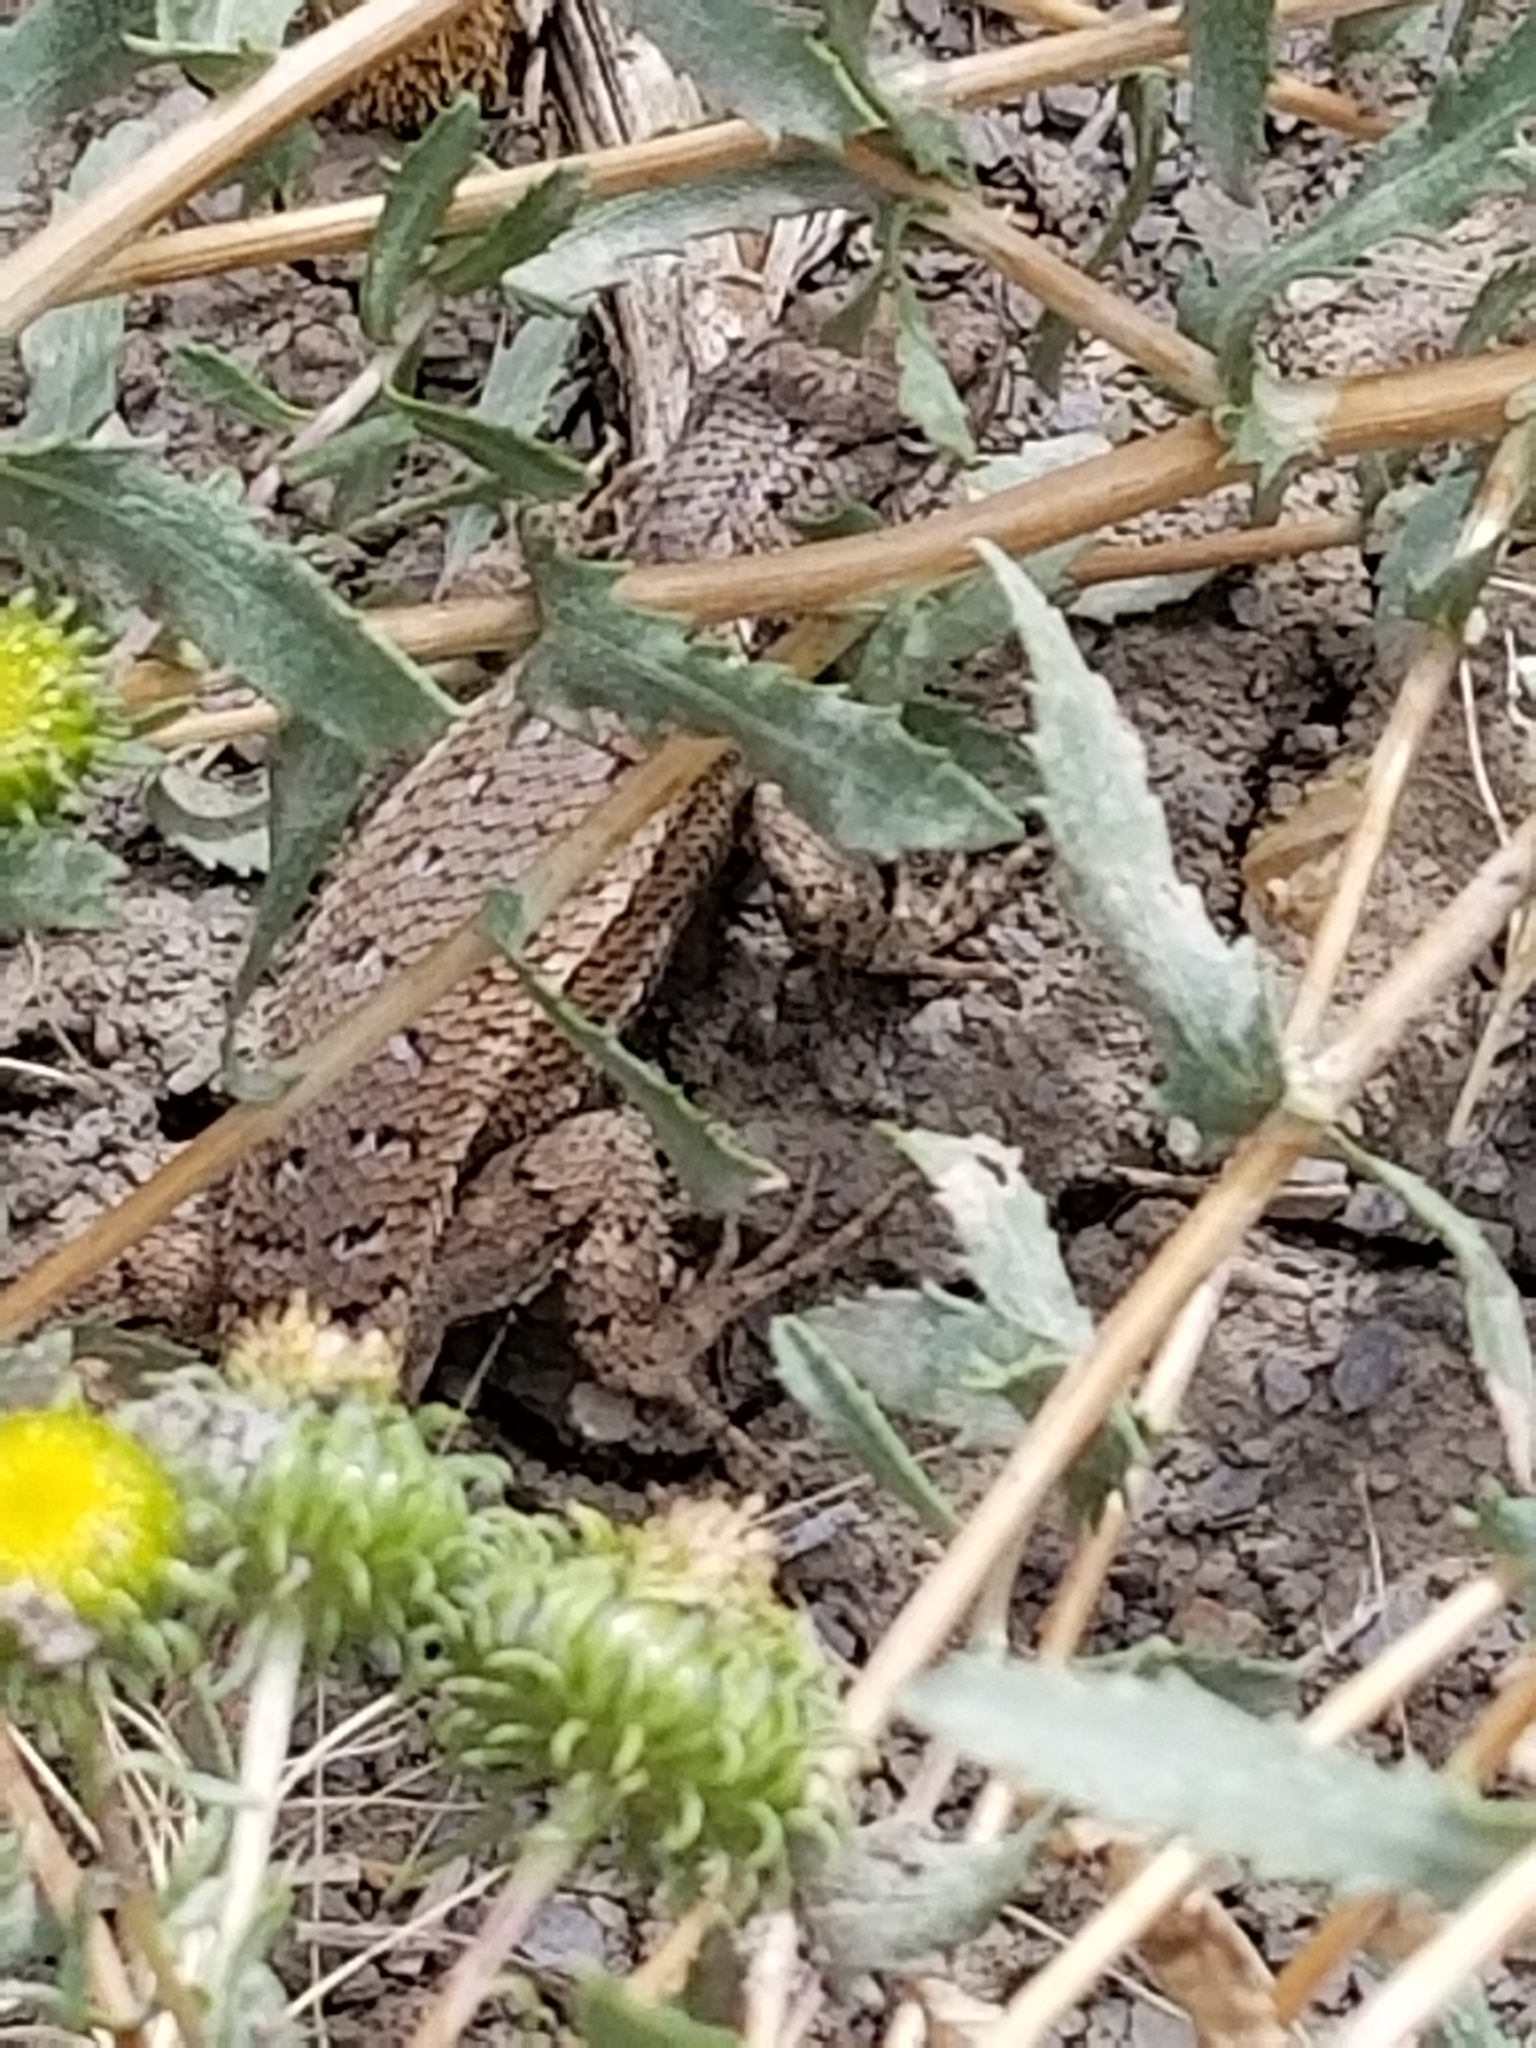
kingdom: Animalia
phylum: Chordata
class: Squamata
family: Phrynosomatidae
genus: Sceloporus
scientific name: Sceloporus tristichus
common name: Plateau fence lizard
